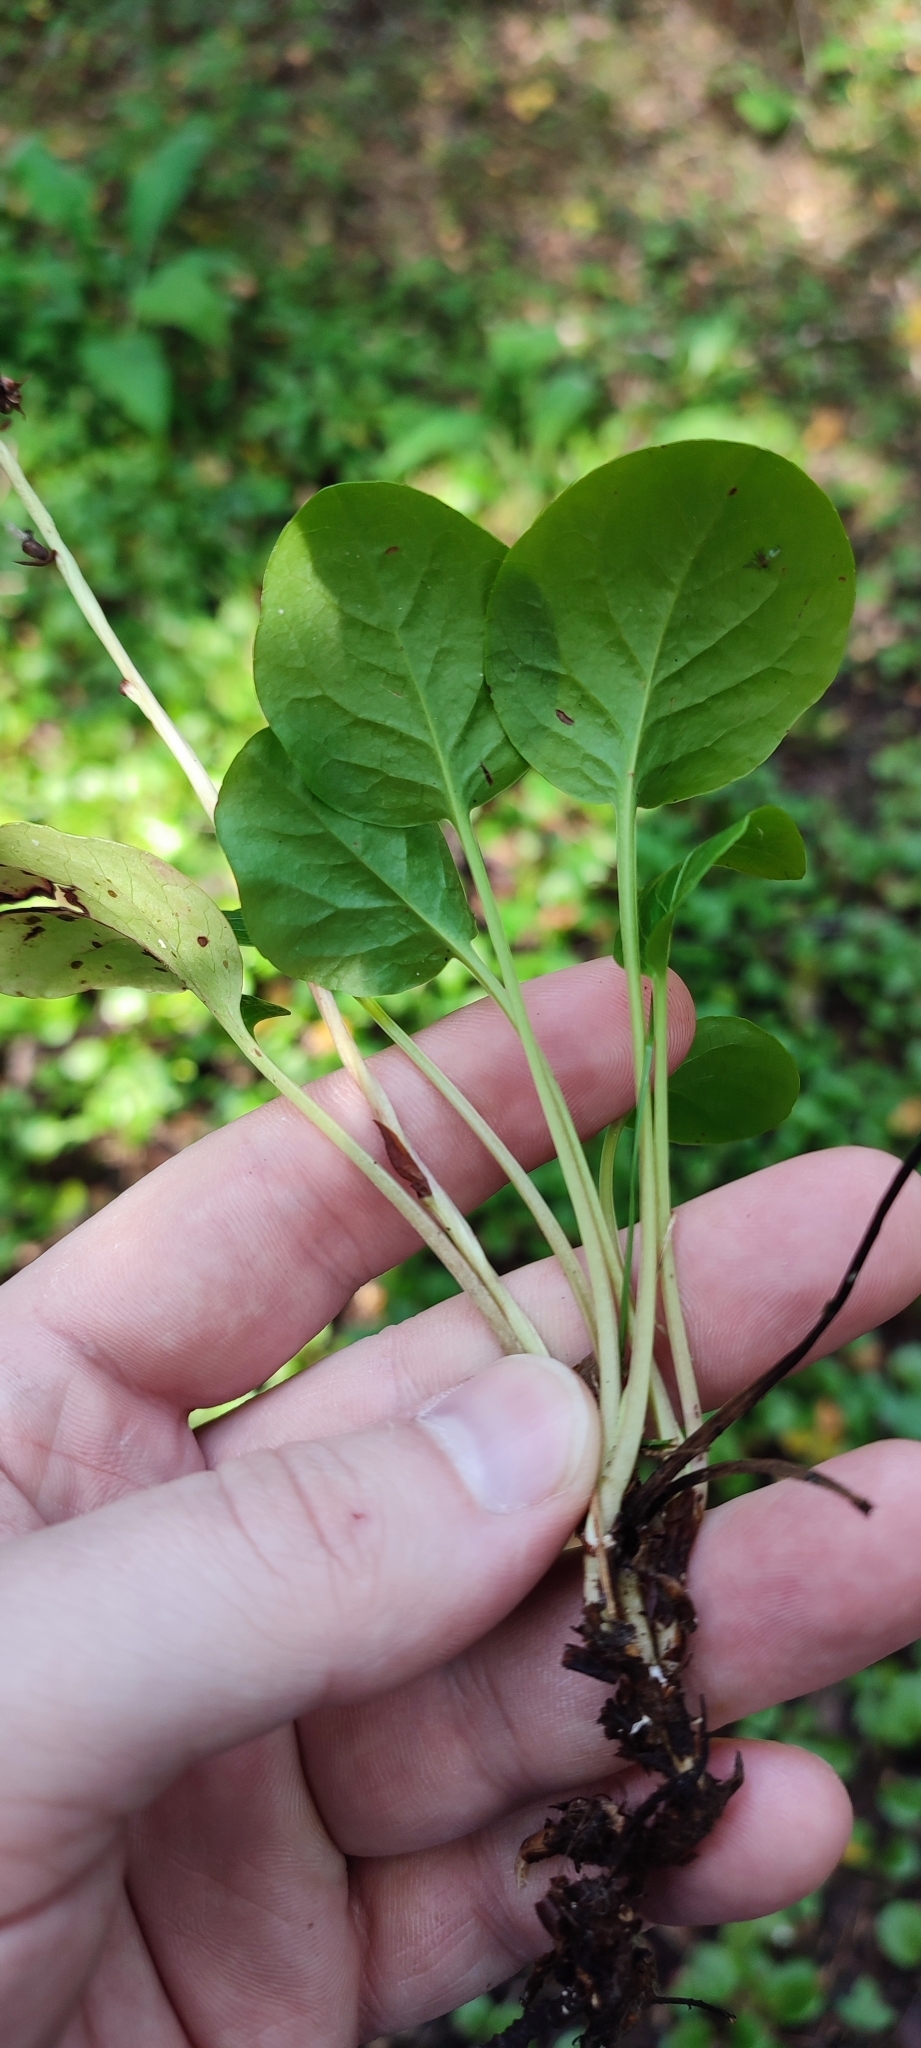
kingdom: Plantae
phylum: Tracheophyta
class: Magnoliopsida
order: Ericales
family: Ericaceae
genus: Pyrola
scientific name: Pyrola rotundifolia
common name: Round-leaved wintergreen
